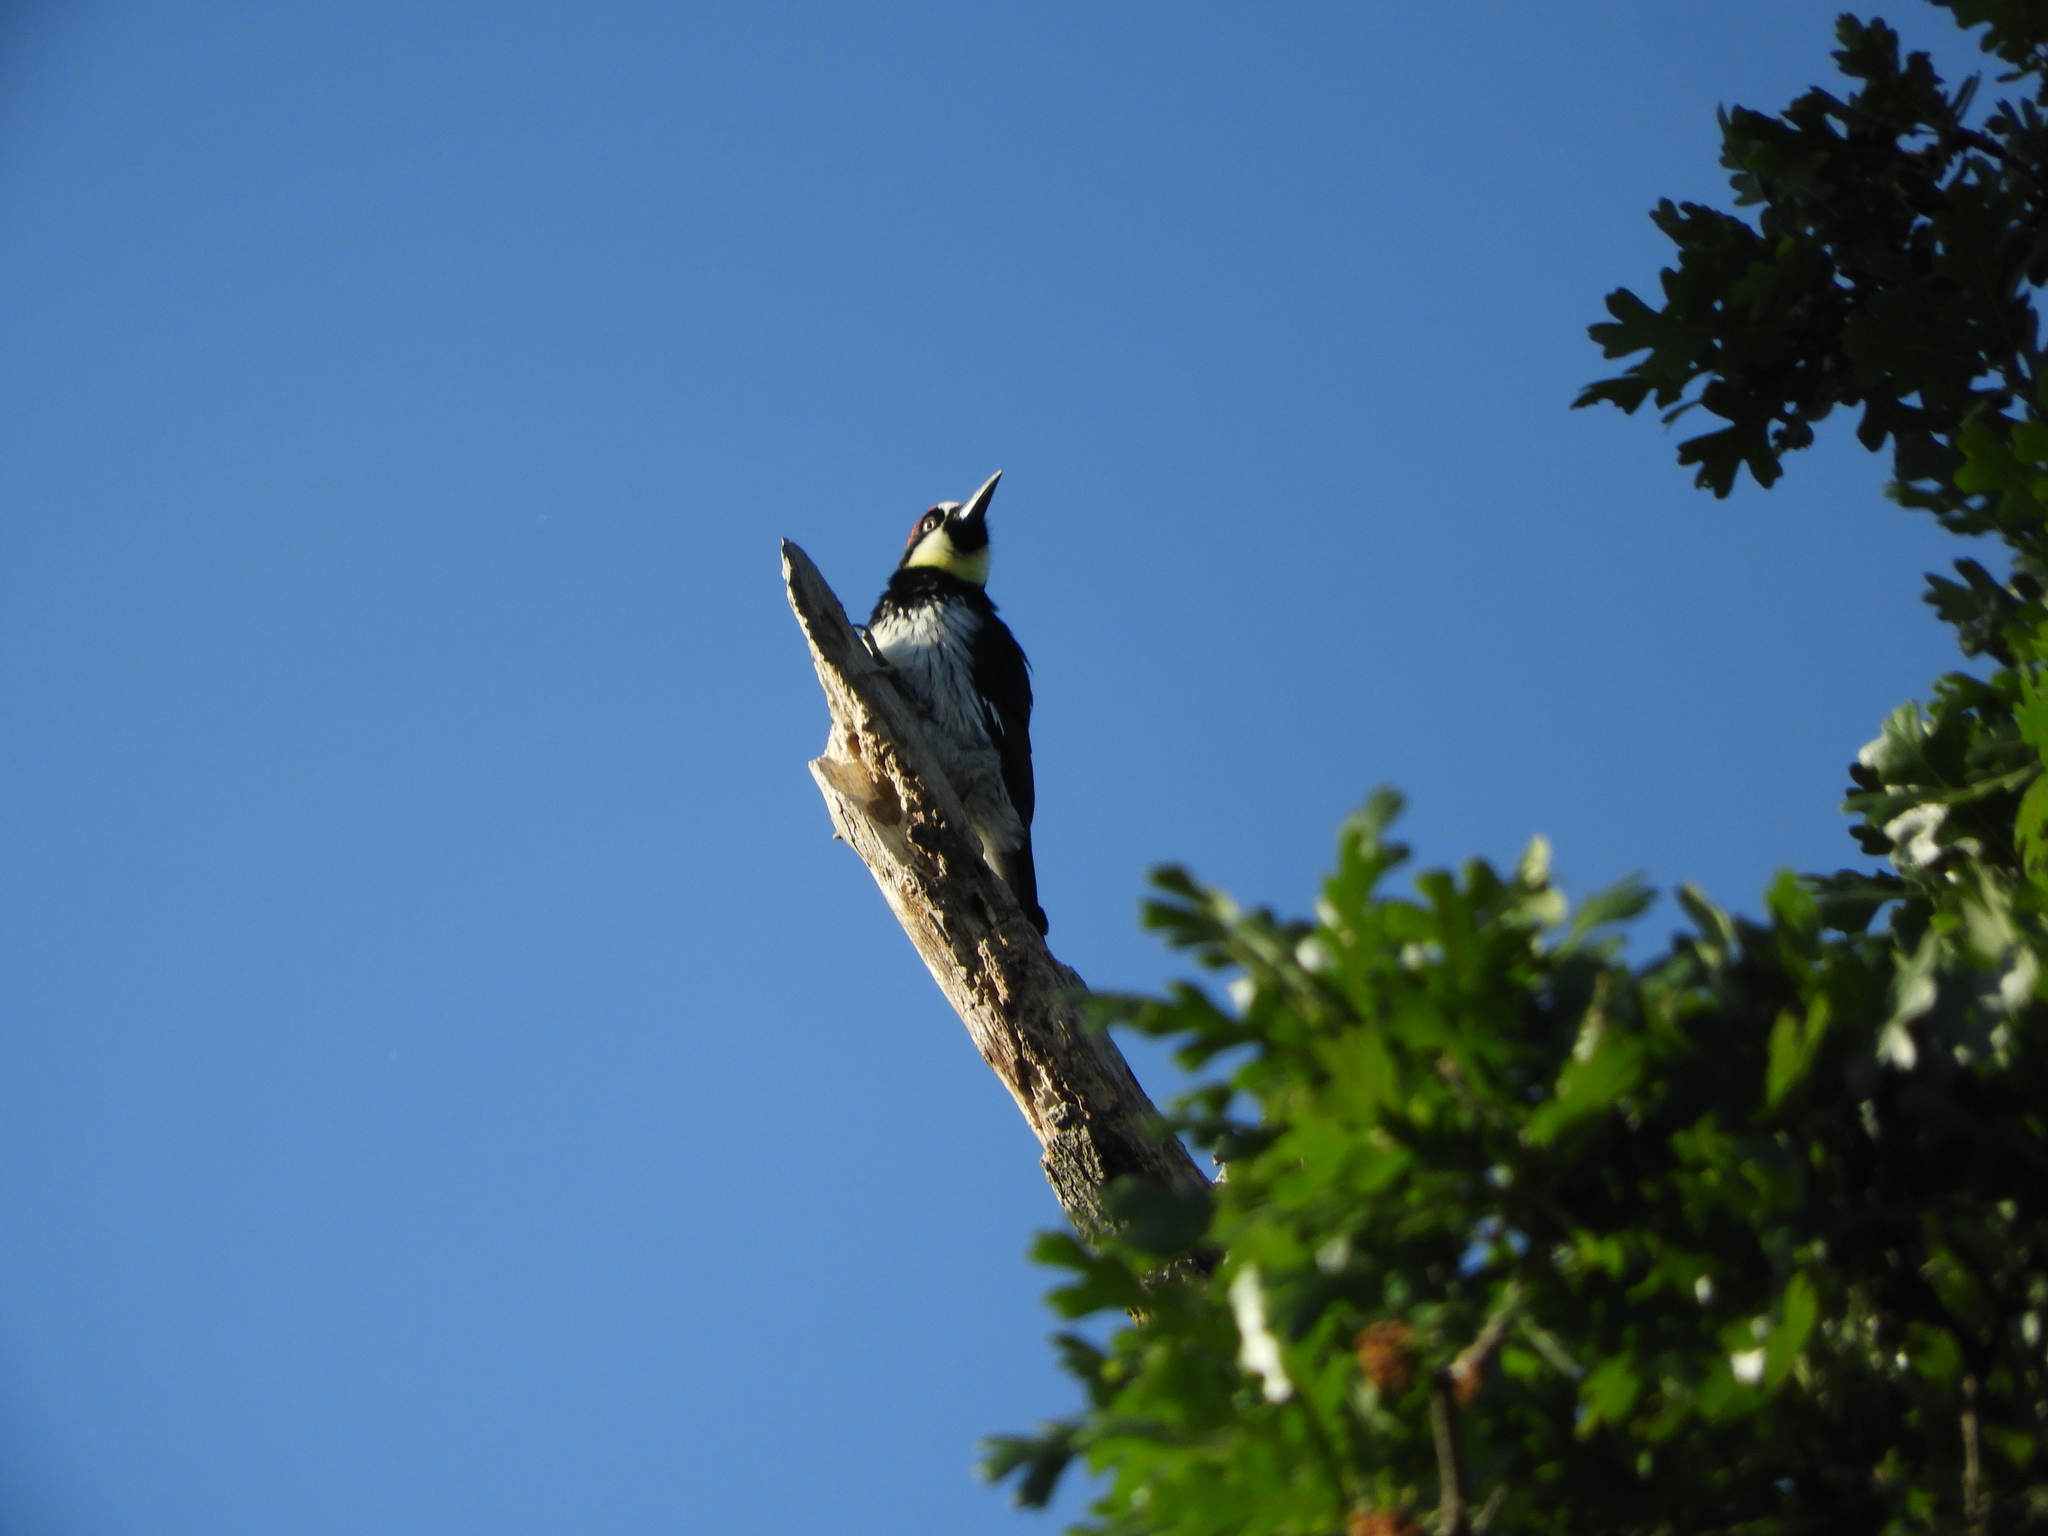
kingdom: Animalia
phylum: Chordata
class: Aves
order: Piciformes
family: Picidae
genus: Melanerpes
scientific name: Melanerpes formicivorus
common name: Acorn woodpecker
